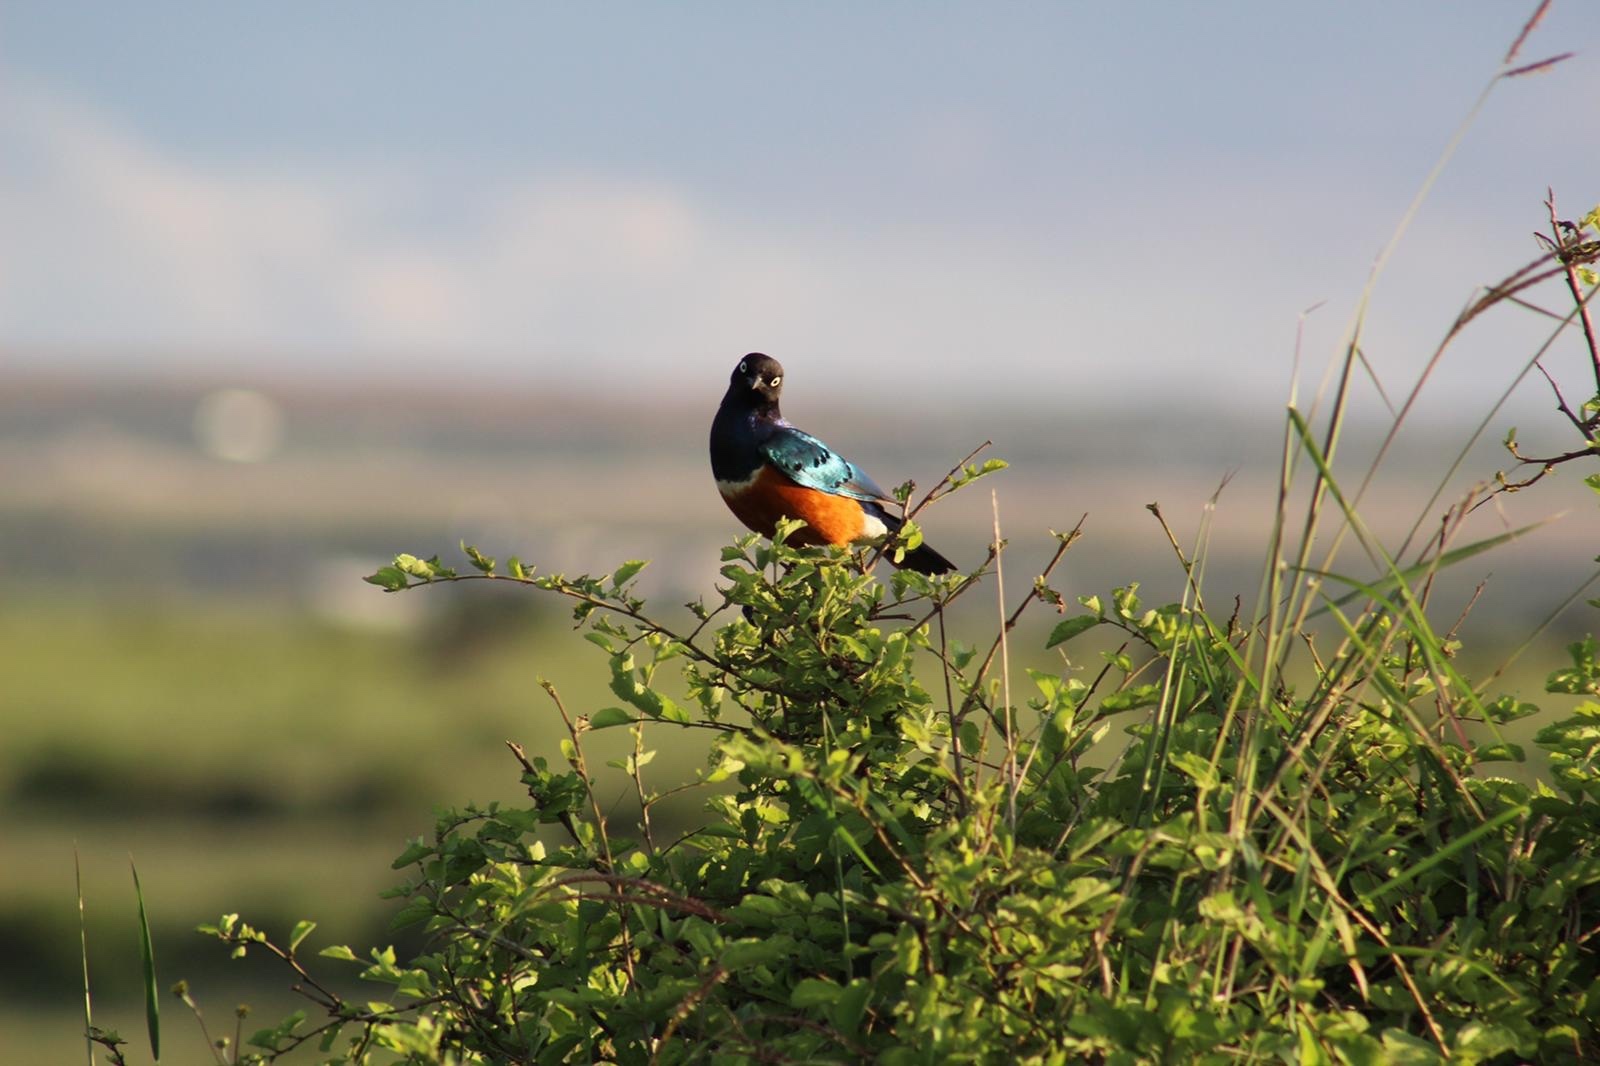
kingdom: Animalia
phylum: Chordata
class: Aves
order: Passeriformes
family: Sturnidae
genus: Lamprotornis
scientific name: Lamprotornis superbus
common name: Superb starling
